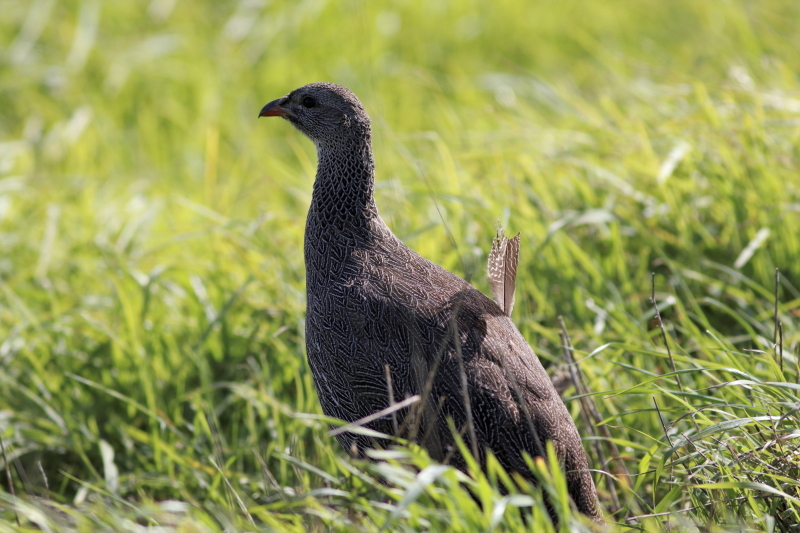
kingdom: Animalia
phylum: Chordata
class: Aves
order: Galliformes
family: Phasianidae
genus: Pternistis
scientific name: Pternistis capensis
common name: Cape spurfowl
